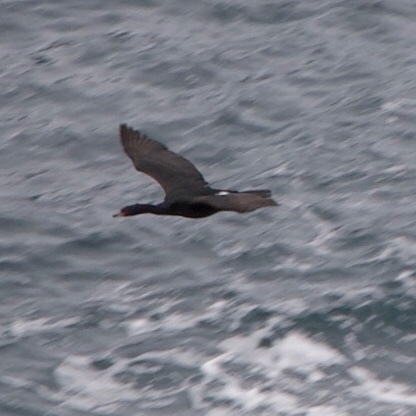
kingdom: Animalia
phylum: Chordata
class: Aves
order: Suliformes
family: Phalacrocoracidae
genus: Phalacrocorax
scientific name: Phalacrocorax pelagicus
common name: Pelagic cormorant
